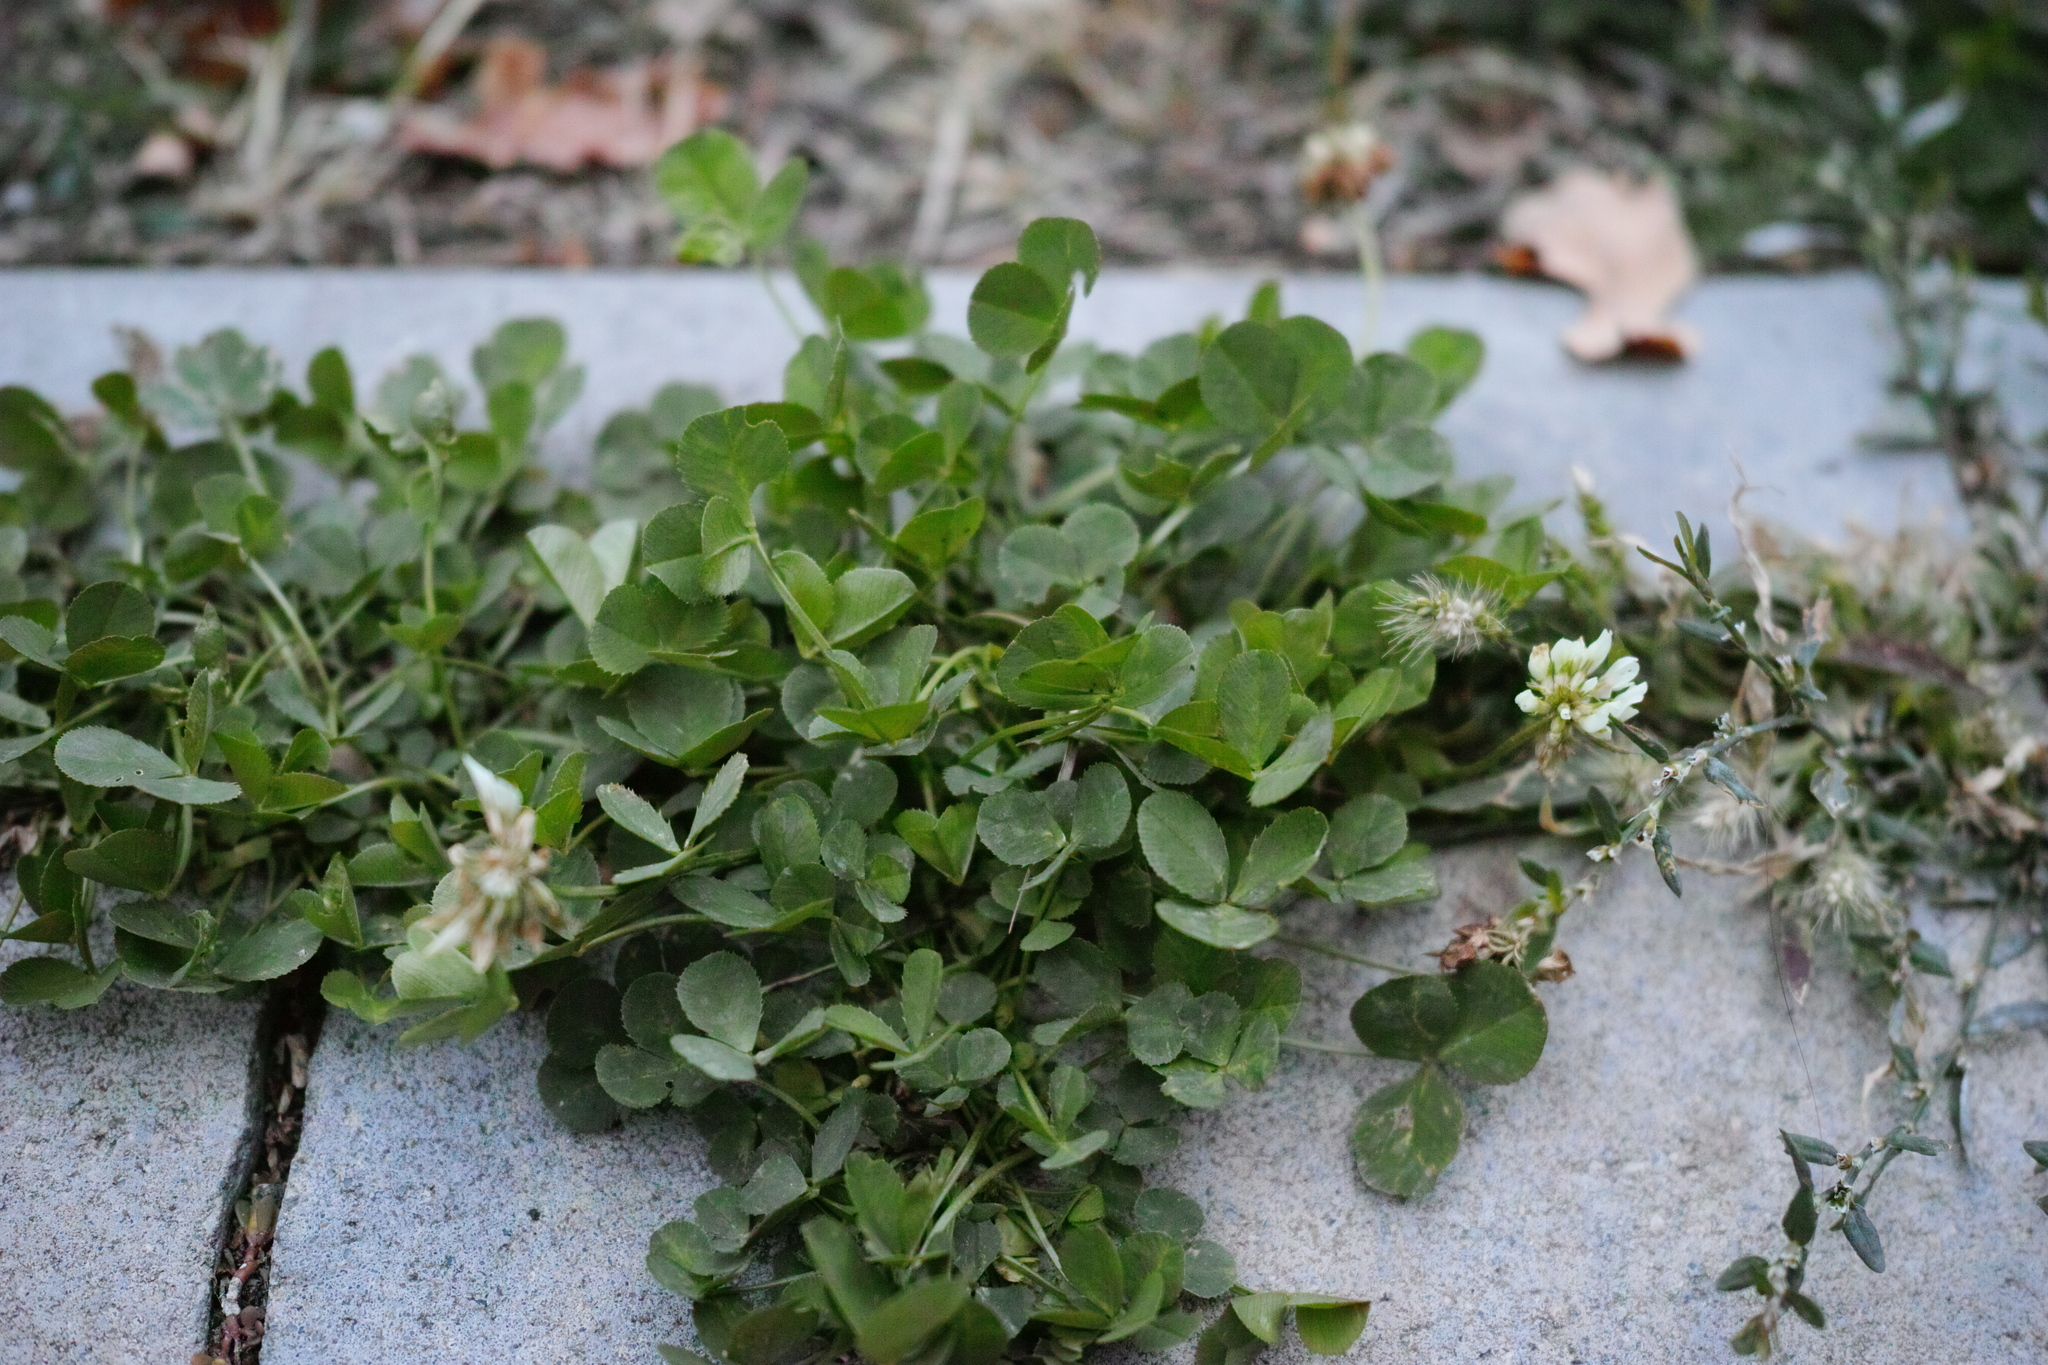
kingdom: Plantae
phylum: Tracheophyta
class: Magnoliopsida
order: Fabales
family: Fabaceae
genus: Trifolium
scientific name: Trifolium repens
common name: White clover
